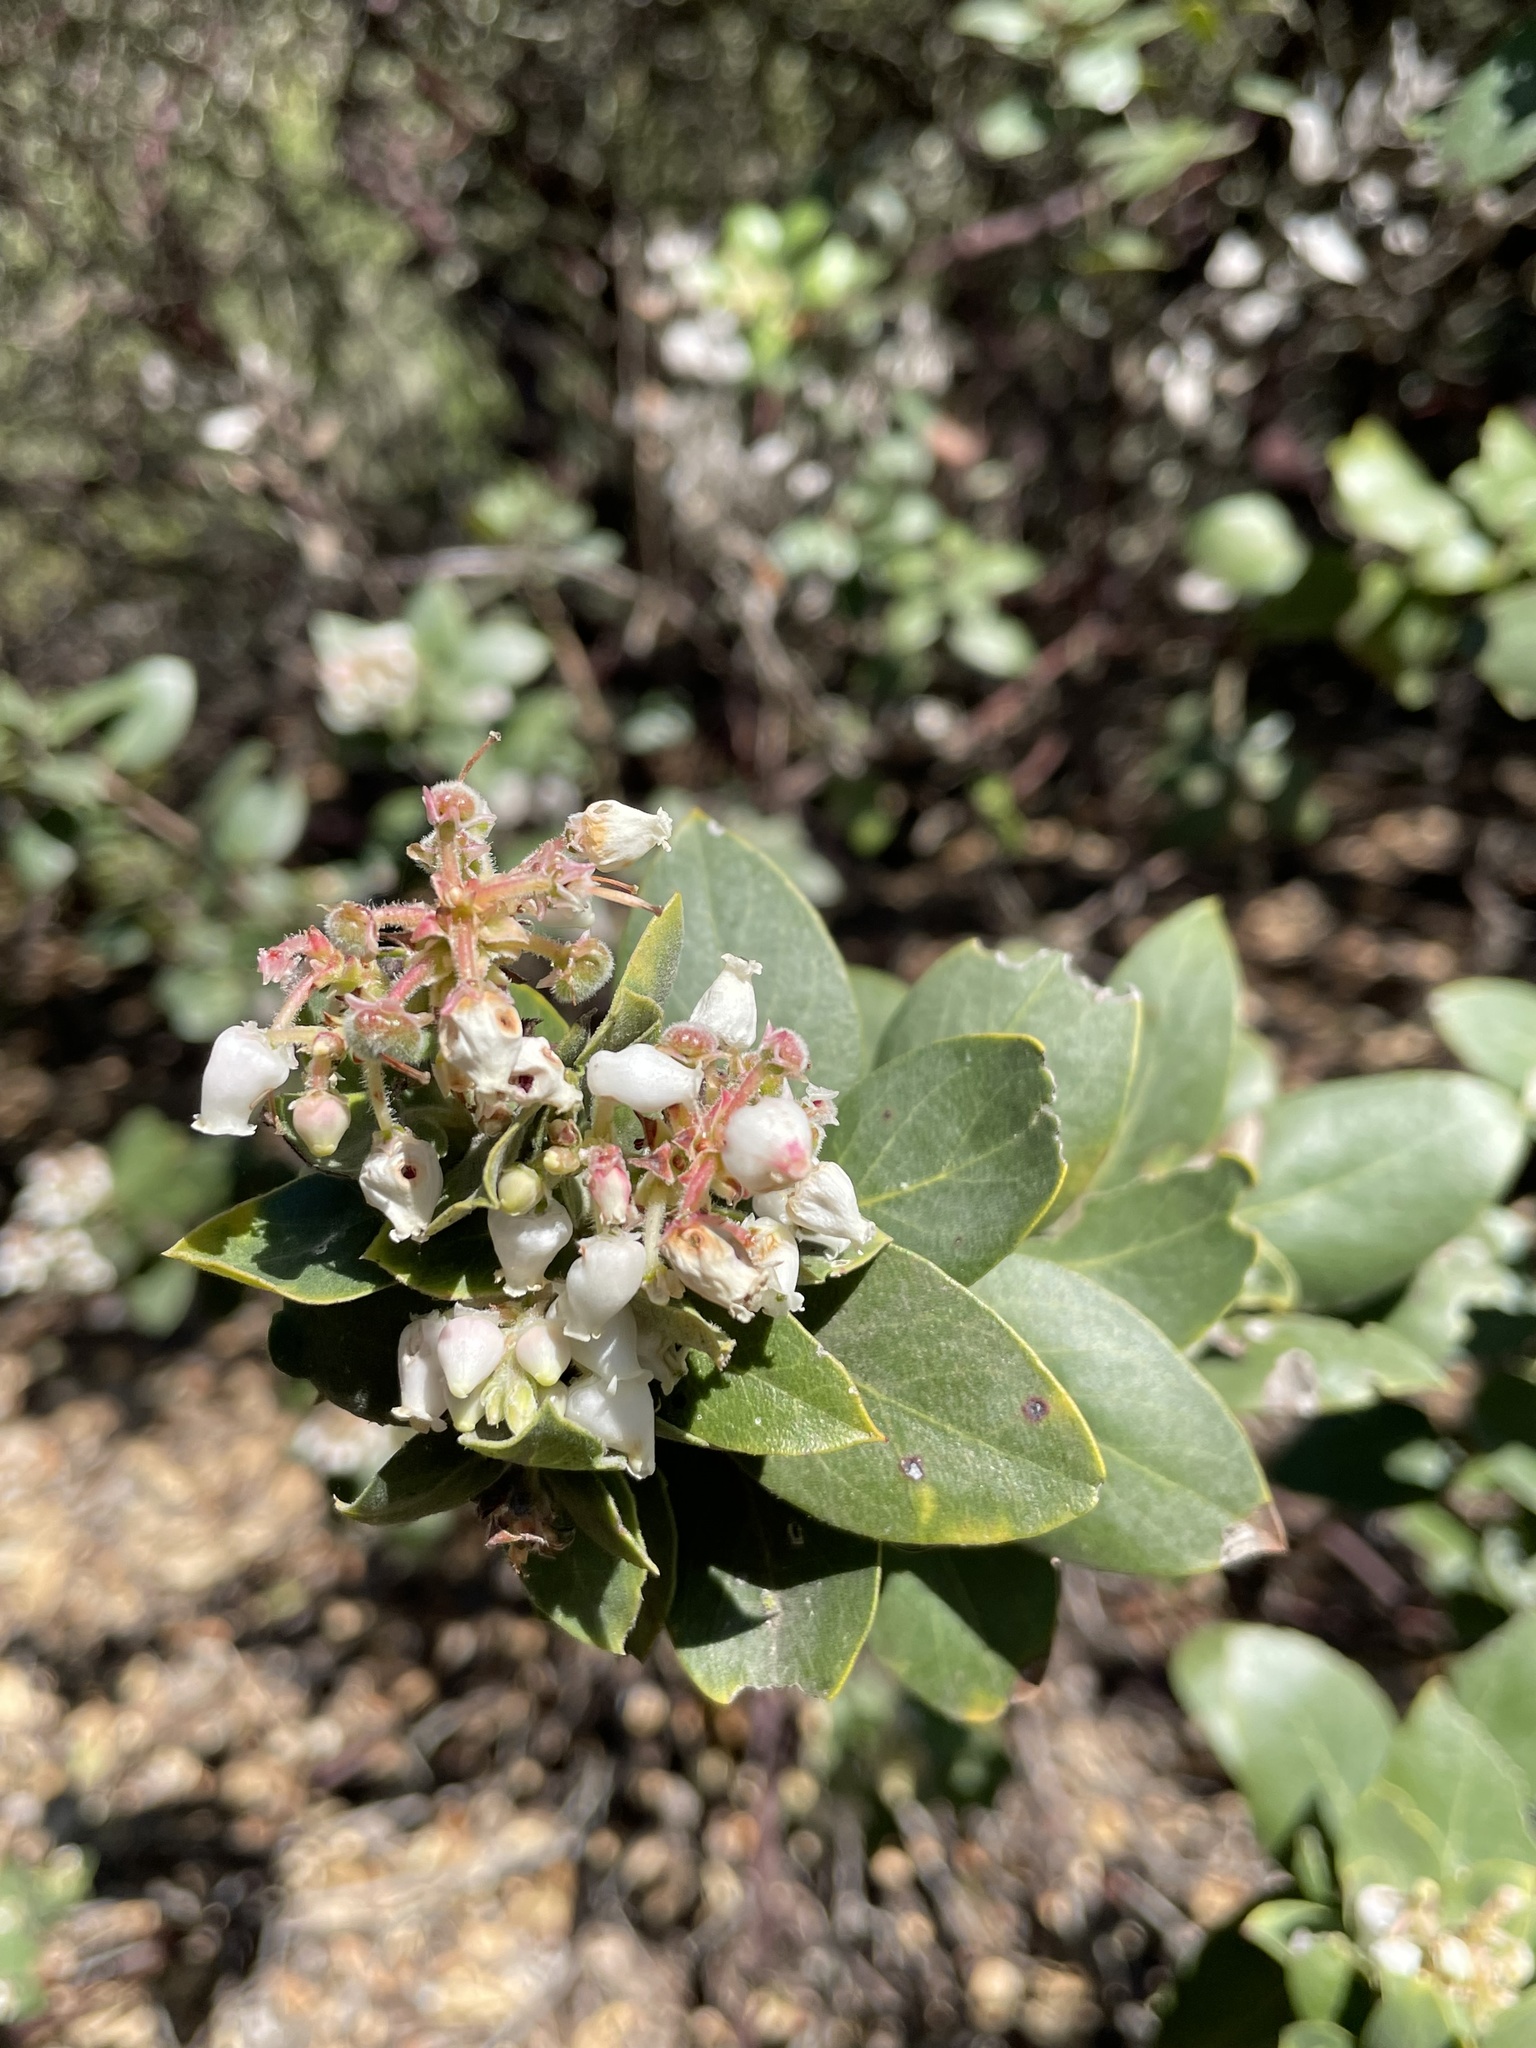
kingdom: Plantae
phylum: Tracheophyta
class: Magnoliopsida
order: Ericales
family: Ericaceae
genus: Arctostaphylos
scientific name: Arctostaphylos crustacea
